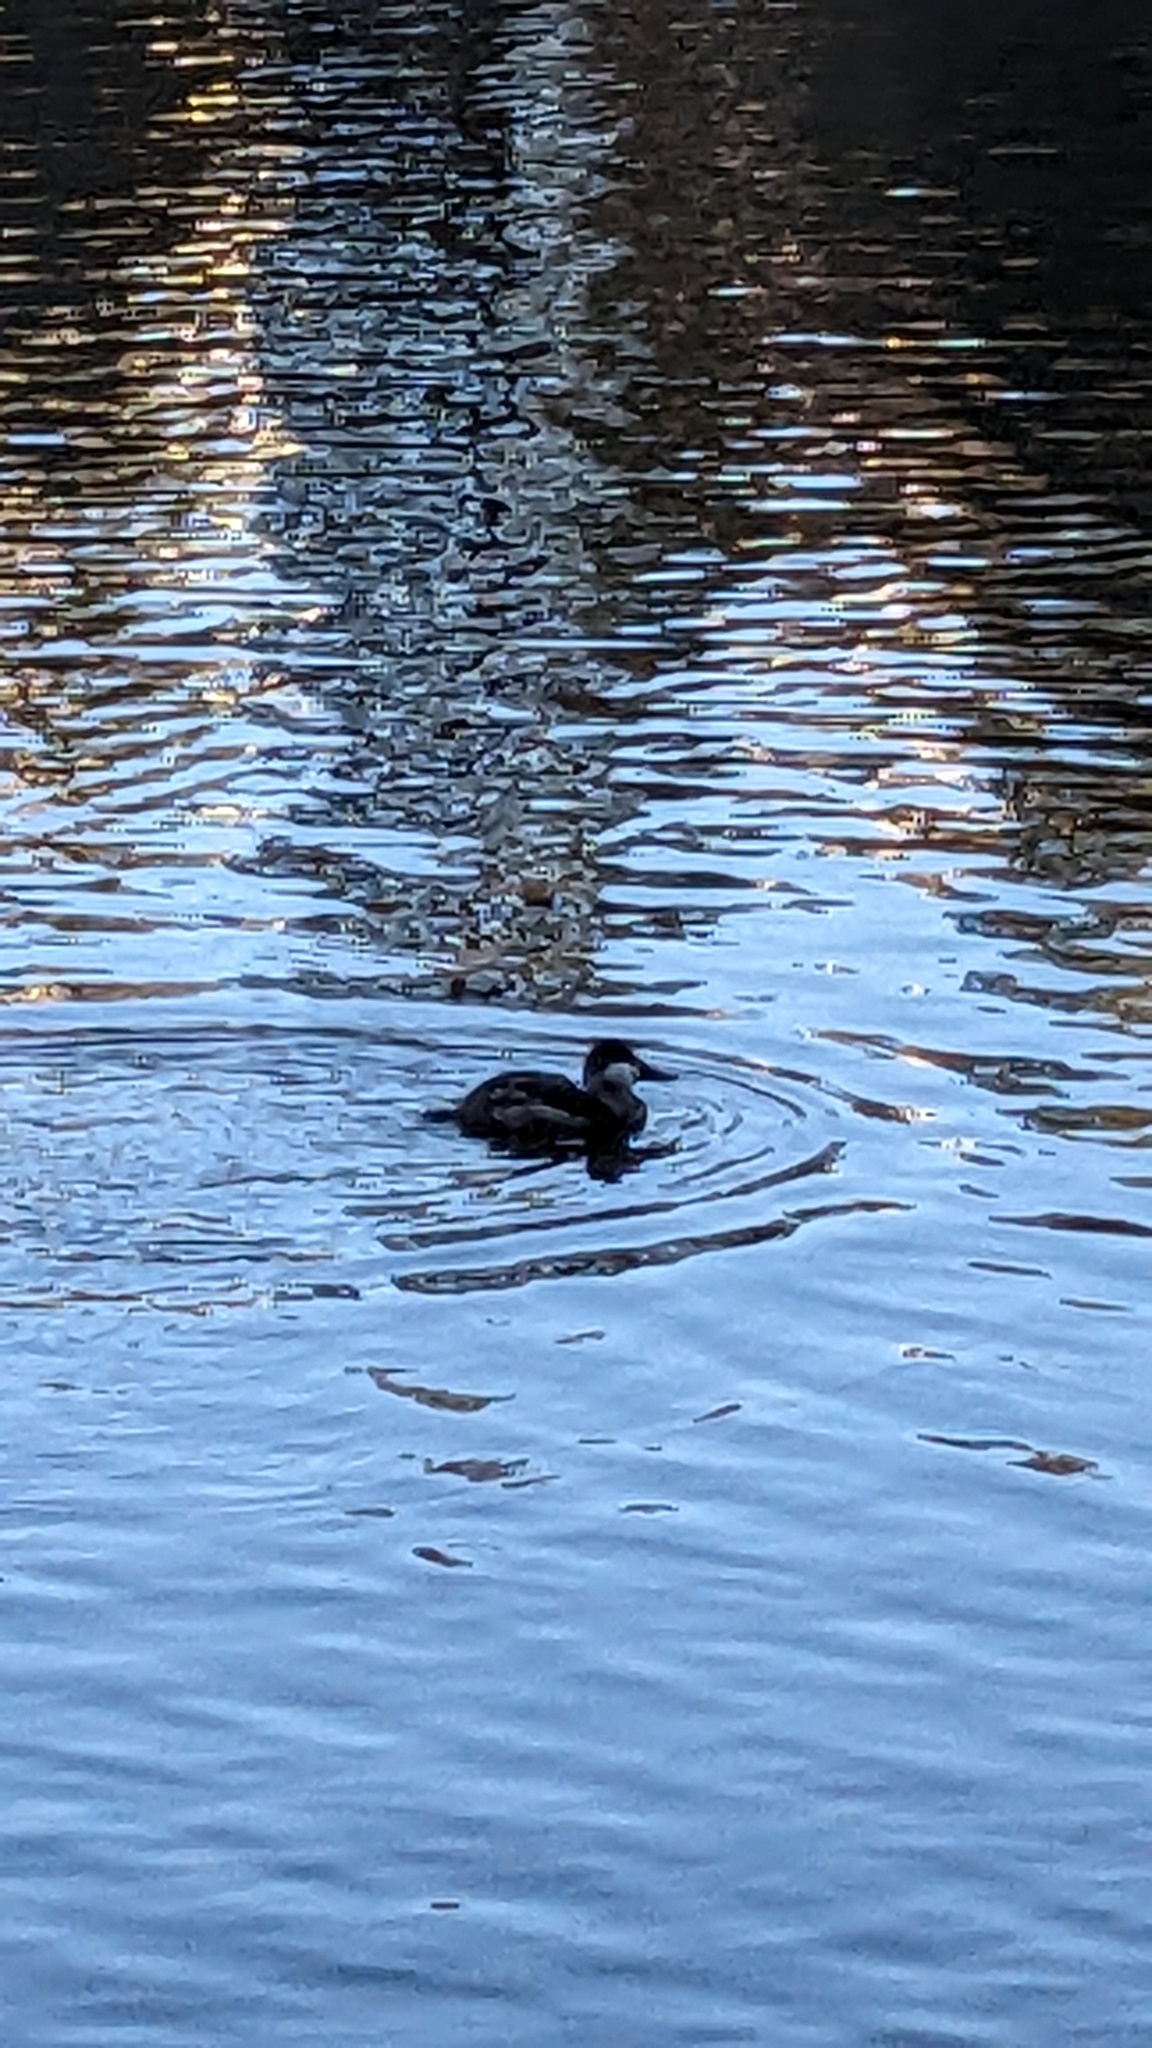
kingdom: Animalia
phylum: Chordata
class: Aves
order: Anseriformes
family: Anatidae
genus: Oxyura
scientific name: Oxyura jamaicensis
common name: Ruddy duck
